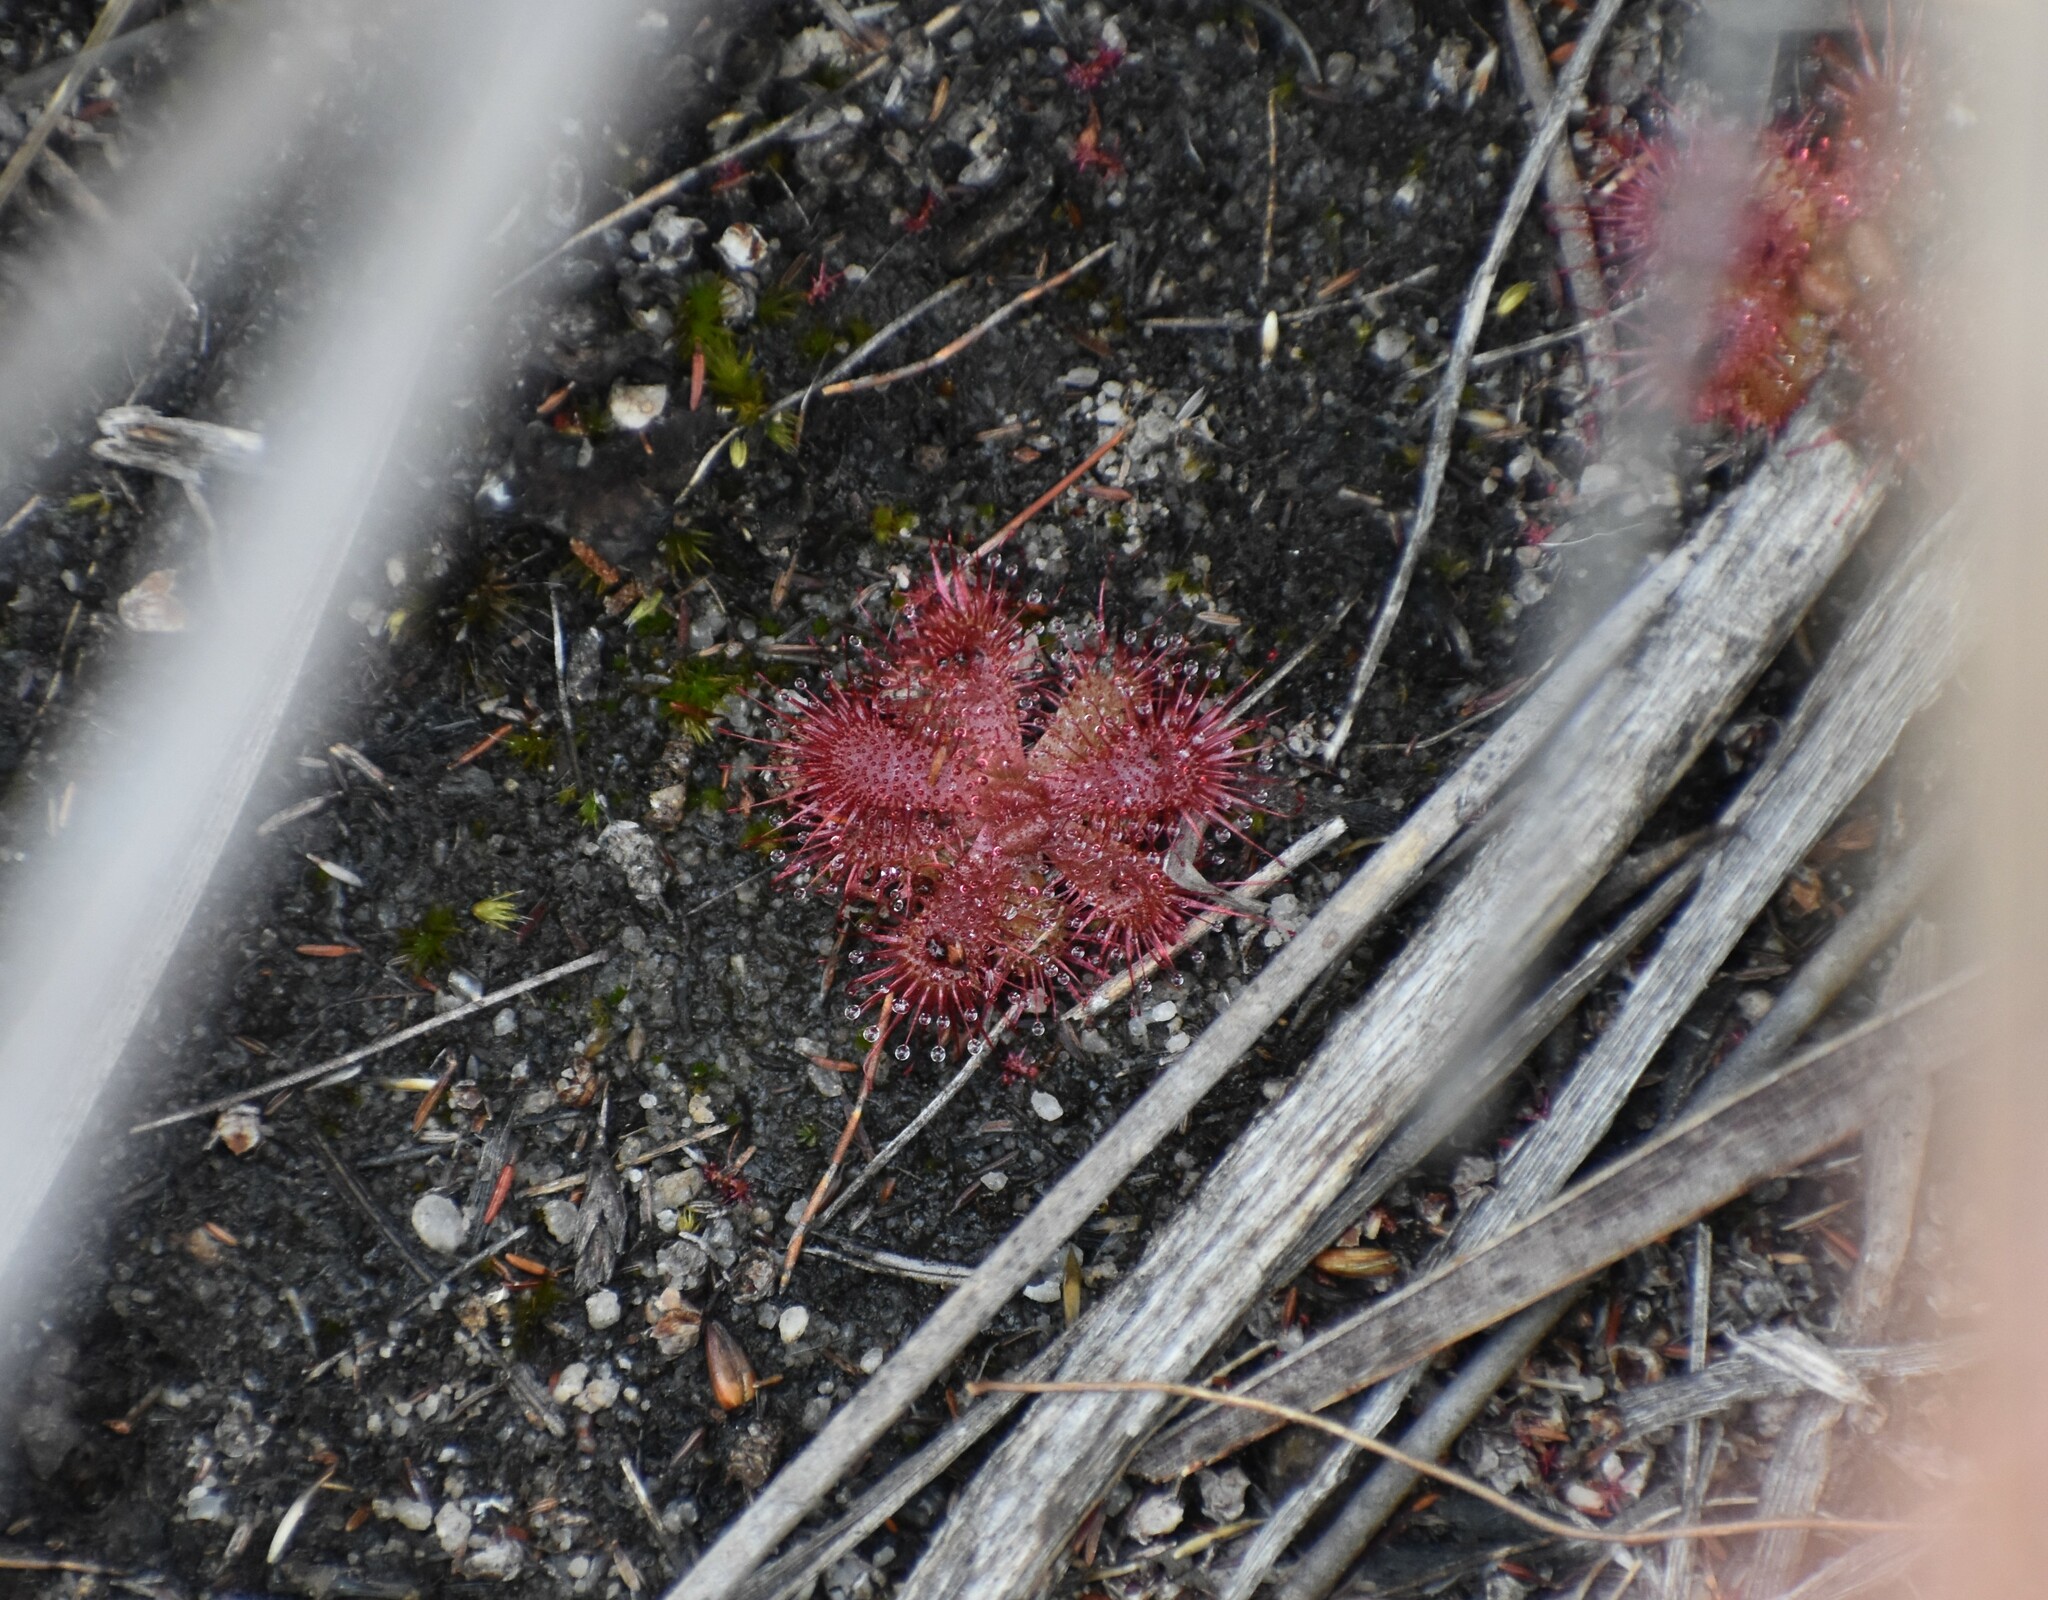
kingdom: Plantae
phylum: Tracheophyta
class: Magnoliopsida
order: Caryophyllales
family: Droseraceae
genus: Drosera
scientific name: Drosera trinervia
